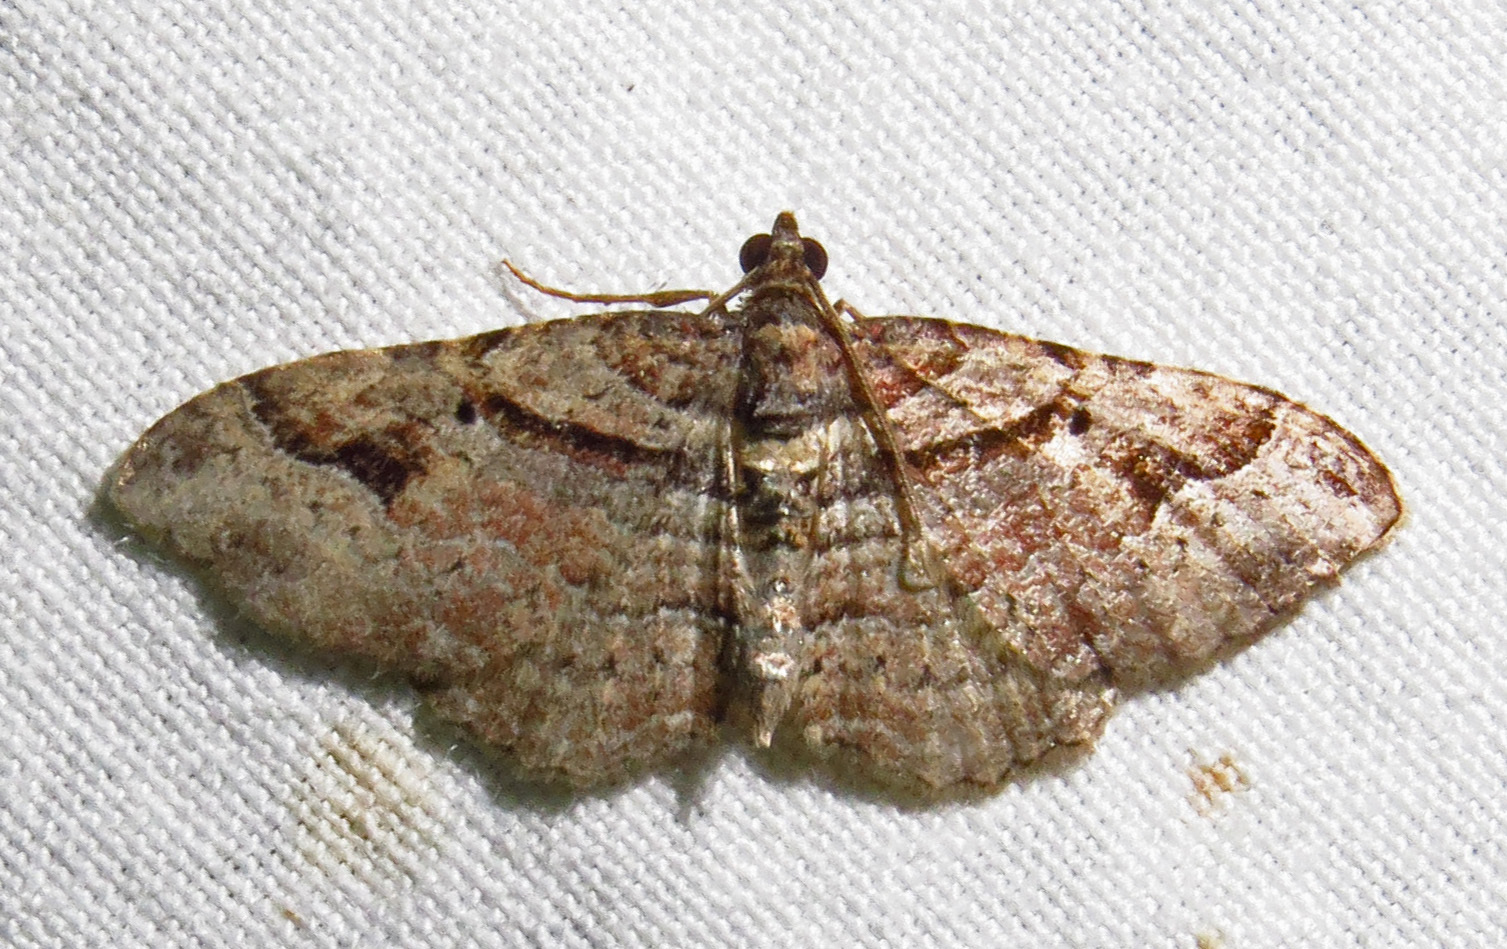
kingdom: Animalia
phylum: Arthropoda
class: Insecta
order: Lepidoptera
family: Geometridae
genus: Costaconvexa
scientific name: Costaconvexa centrostrigaria
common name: Bent-line carpet
